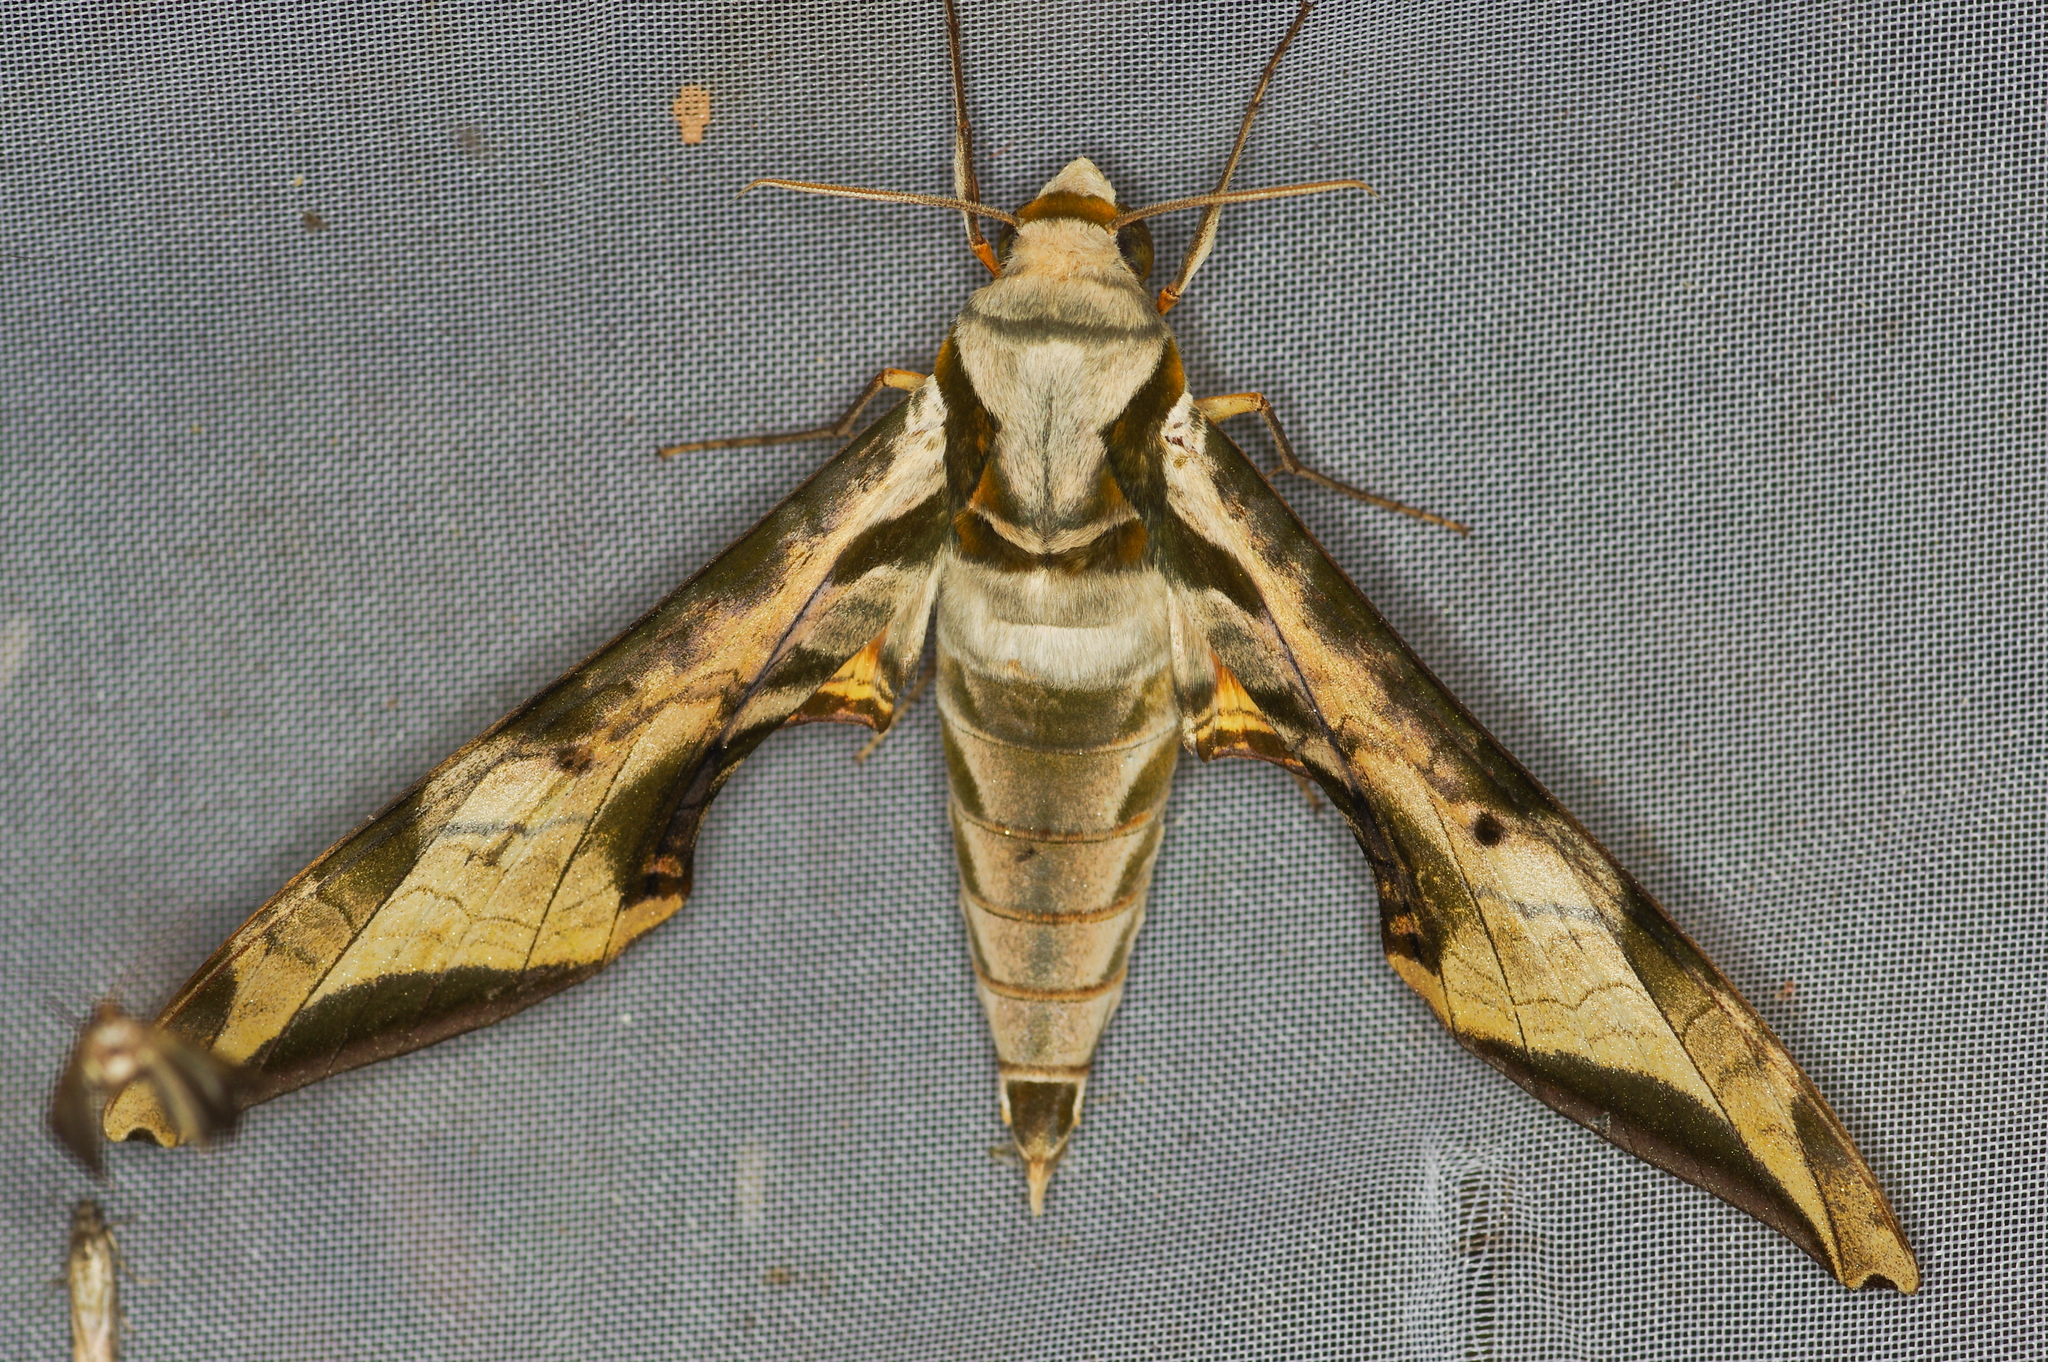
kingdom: Animalia
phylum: Arthropoda
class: Insecta
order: Lepidoptera
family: Sphingidae
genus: Protambulyx
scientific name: Protambulyx goeldii
